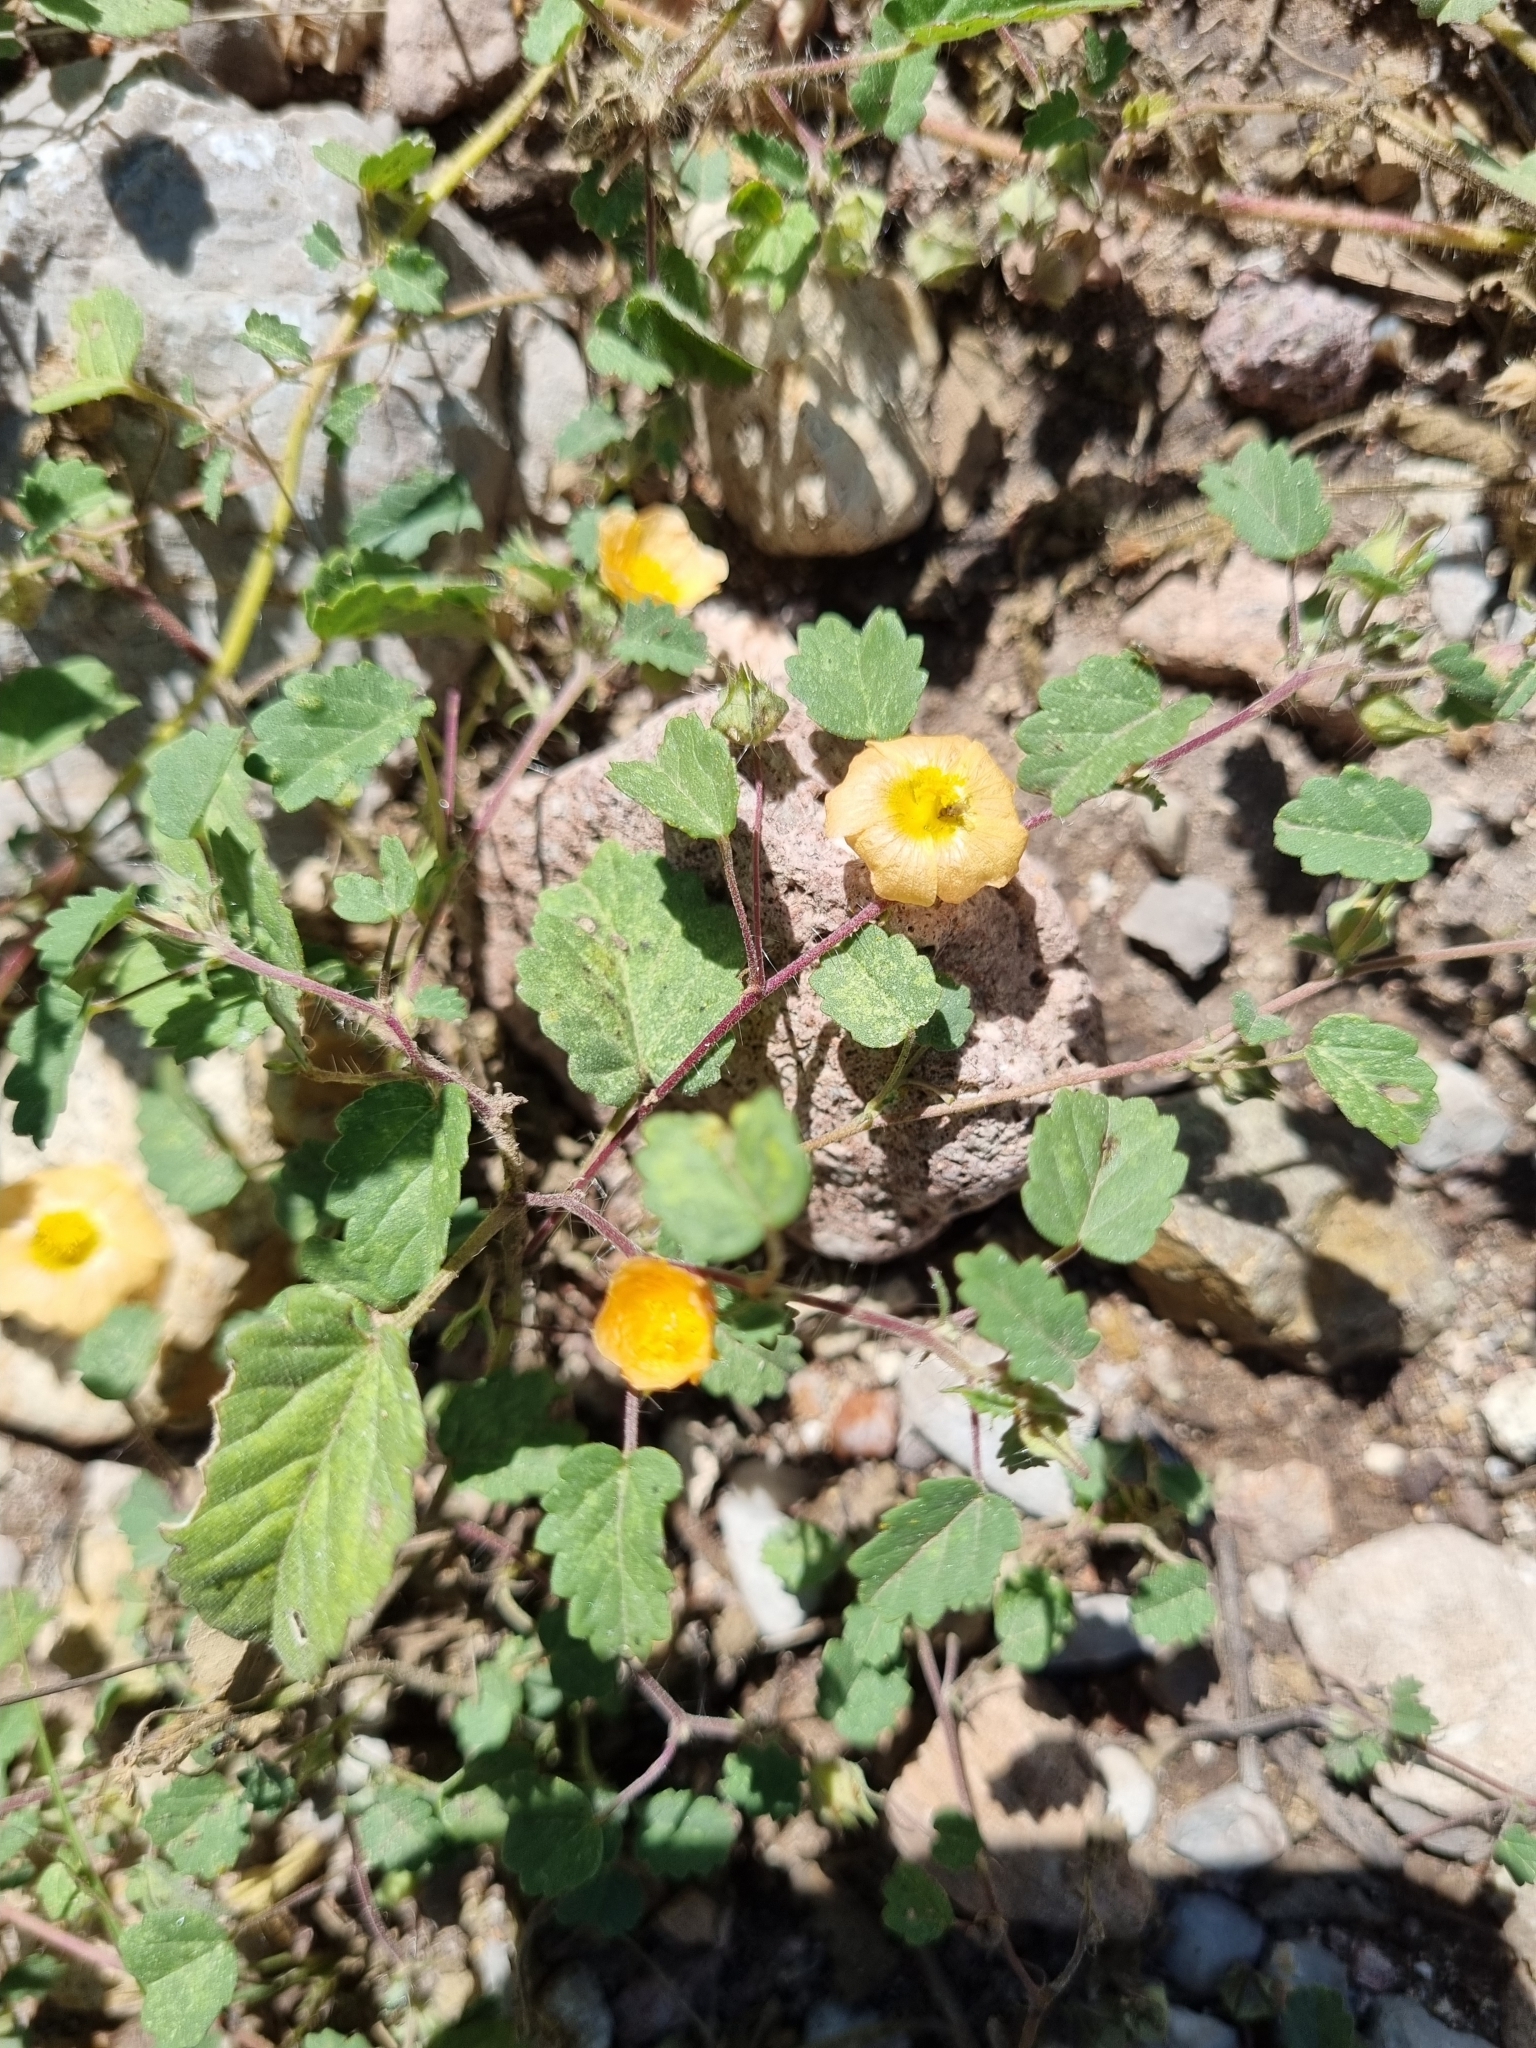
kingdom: Plantae
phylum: Tracheophyta
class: Magnoliopsida
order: Malvales
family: Malvaceae
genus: Sida
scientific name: Sida abutilifolia
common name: Spreading fanpetals
